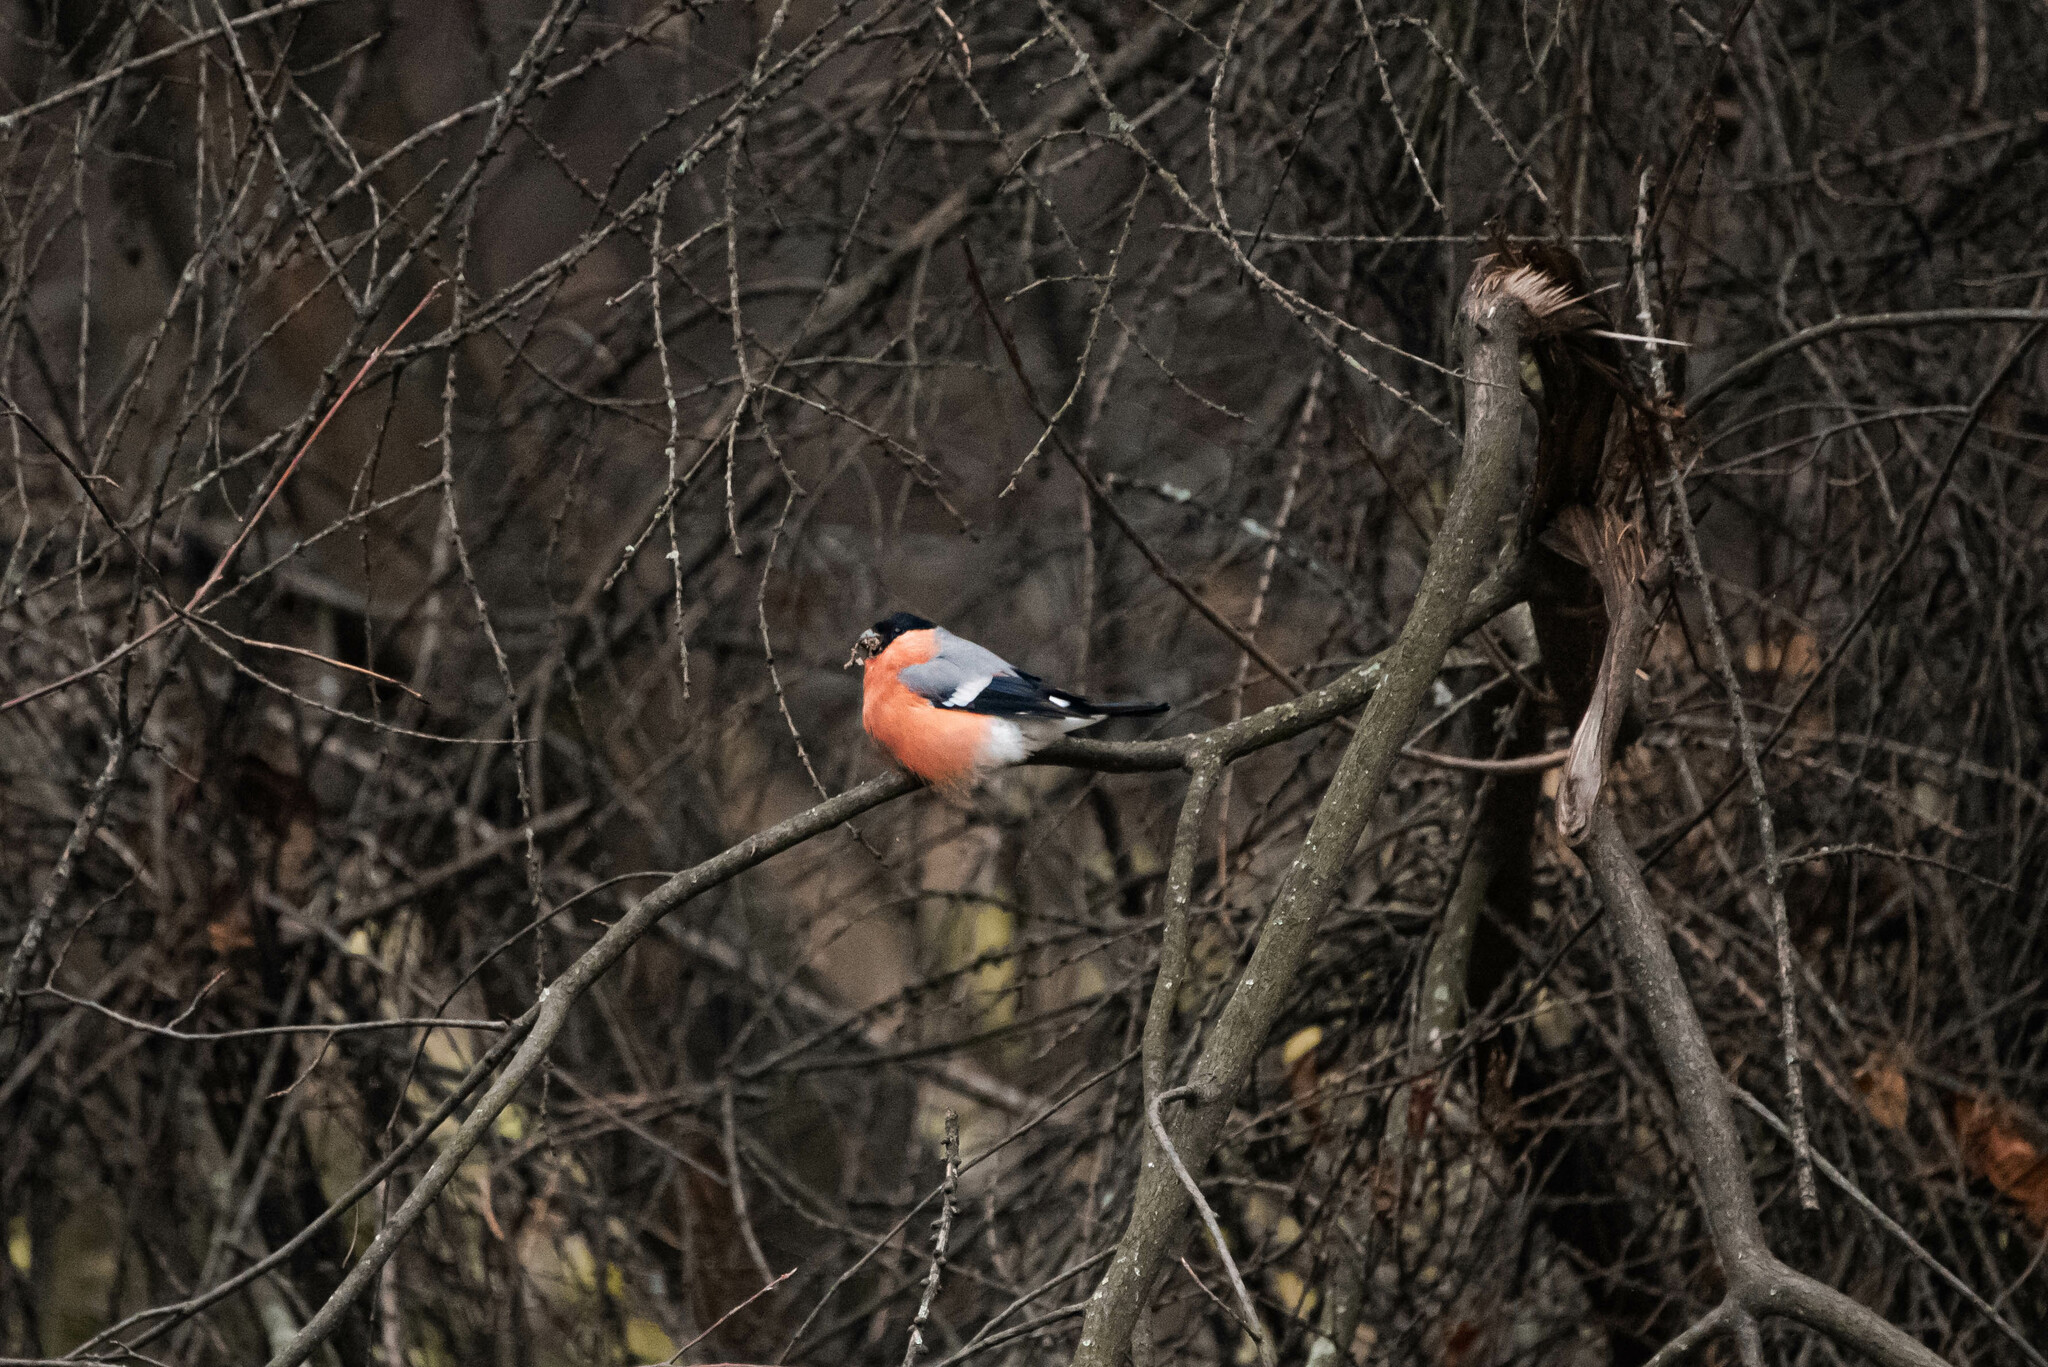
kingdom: Animalia
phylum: Chordata
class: Aves
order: Passeriformes
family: Fringillidae
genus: Pyrrhula
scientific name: Pyrrhula pyrrhula
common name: Eurasian bullfinch
